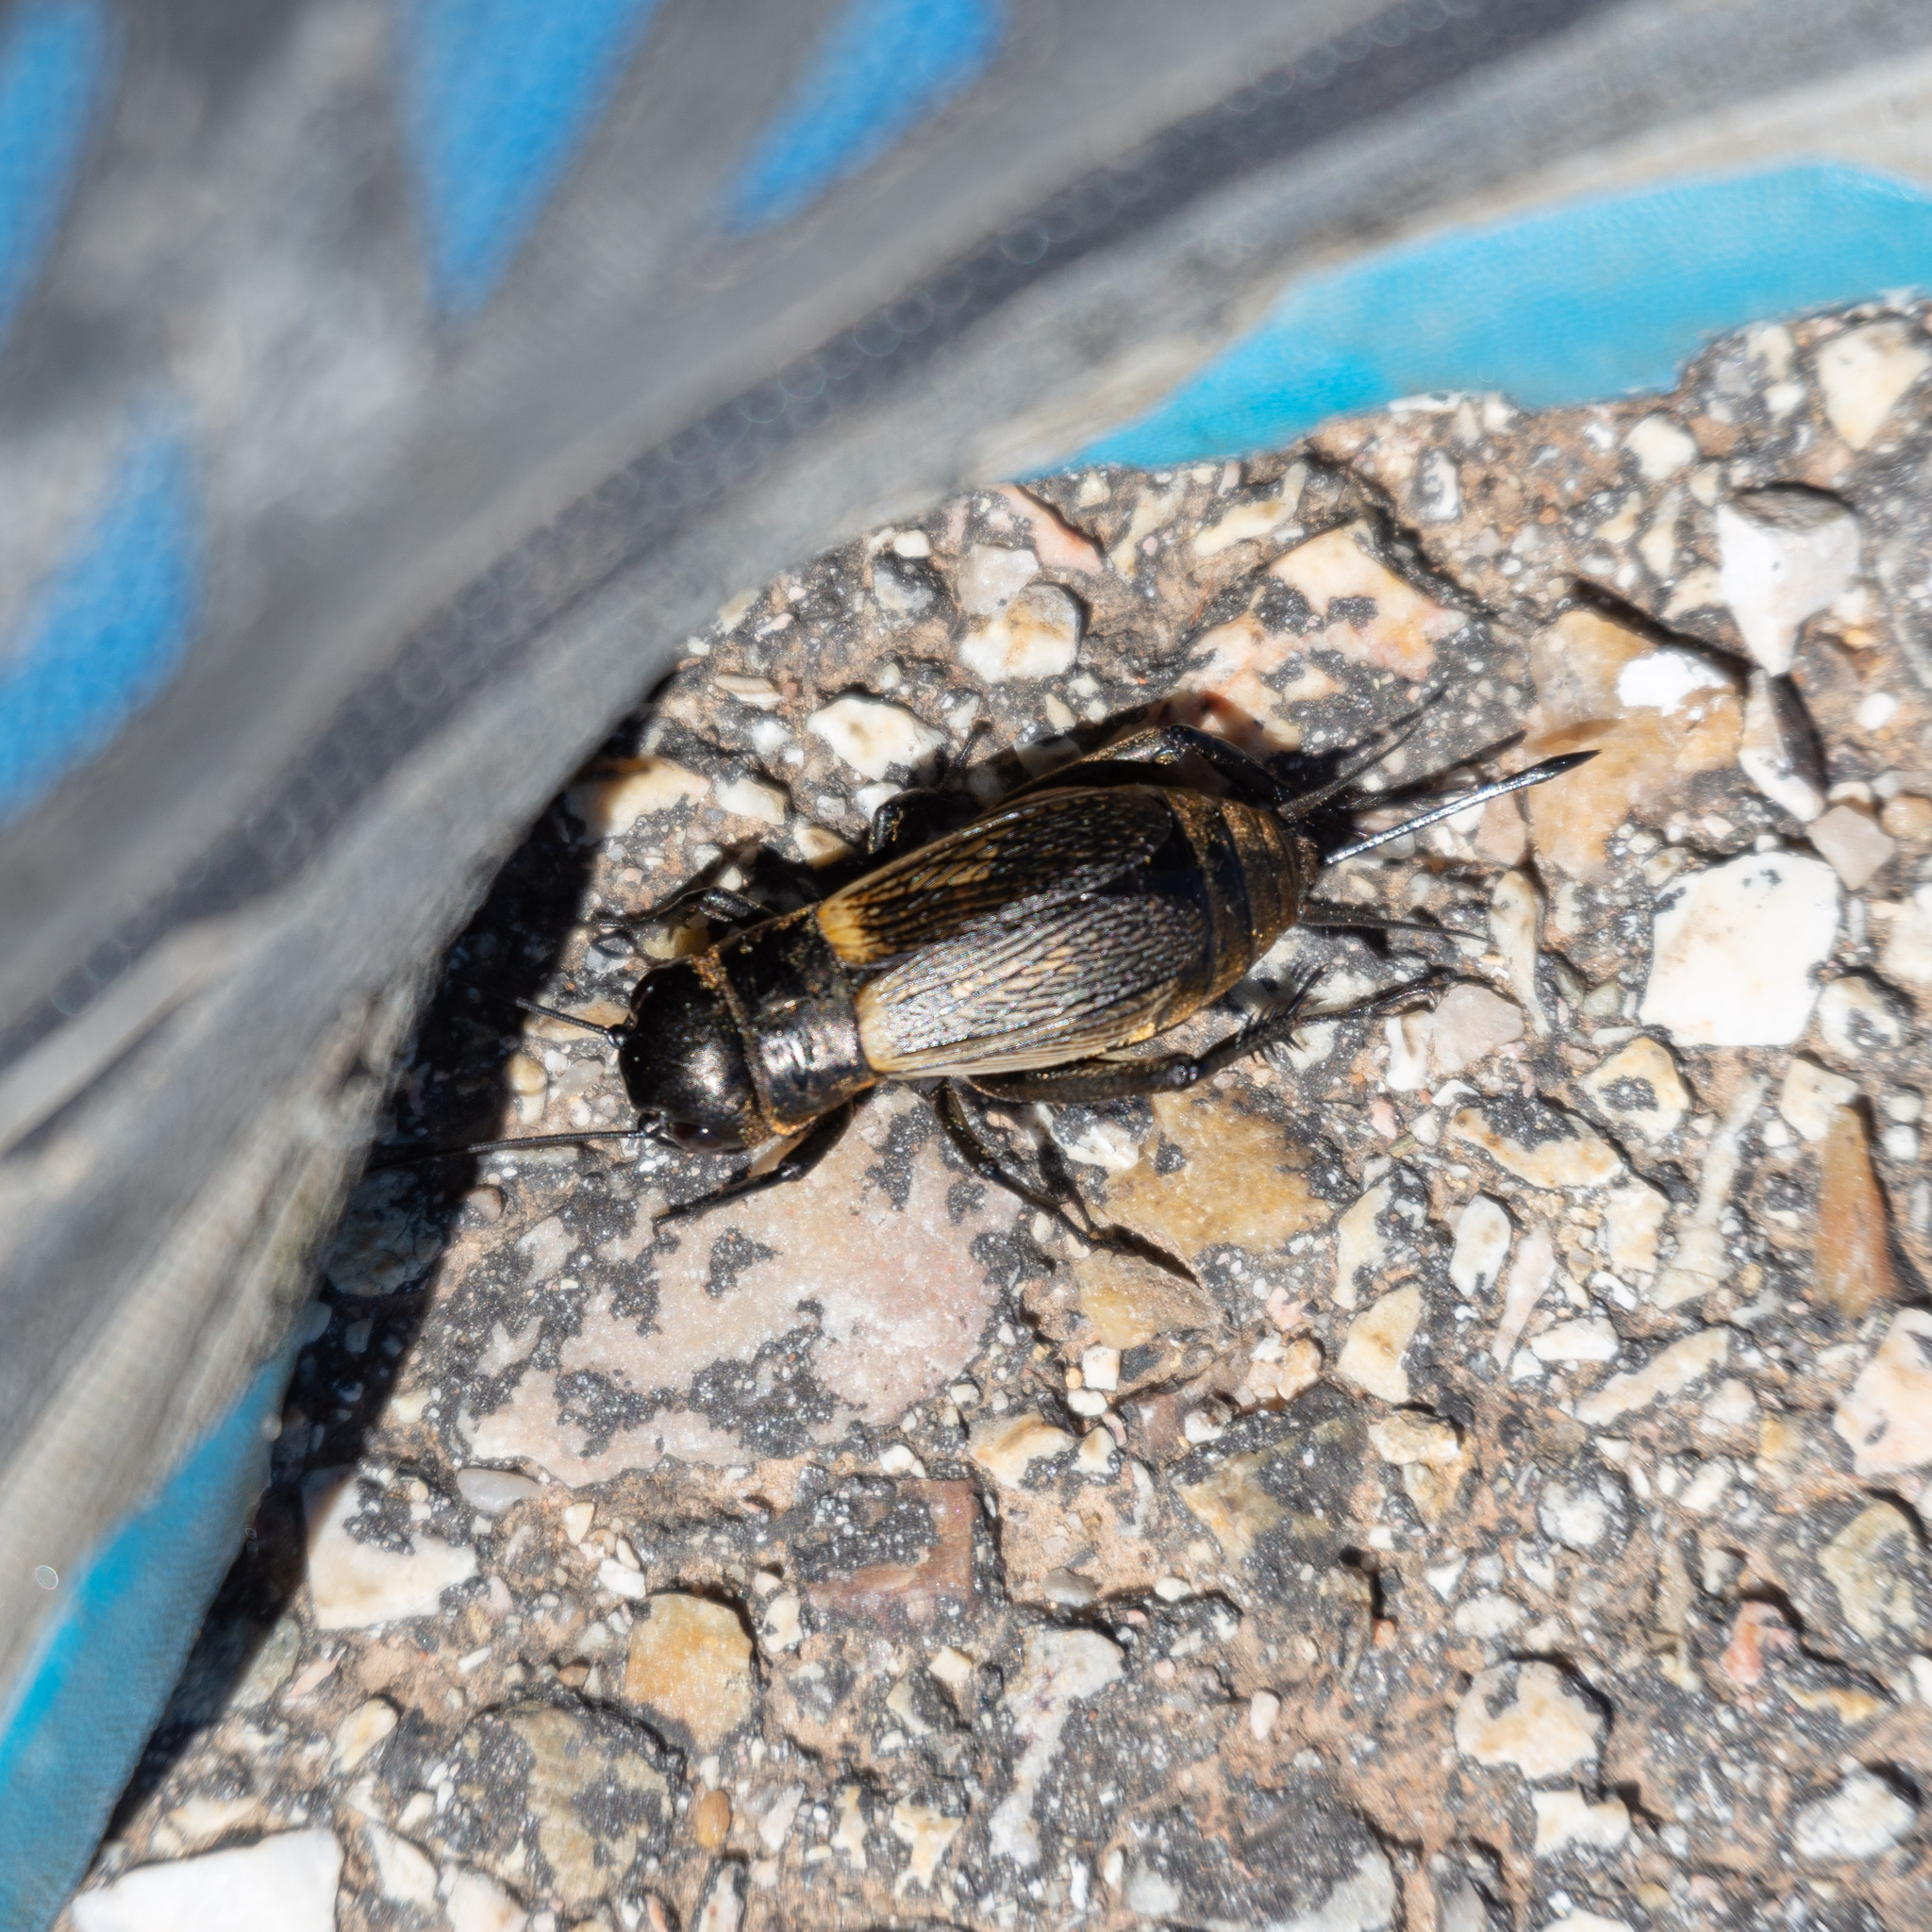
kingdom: Animalia
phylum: Arthropoda
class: Insecta
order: Orthoptera
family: Gryllidae
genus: Gryllus
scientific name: Gryllus campestris
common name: Field cricket
